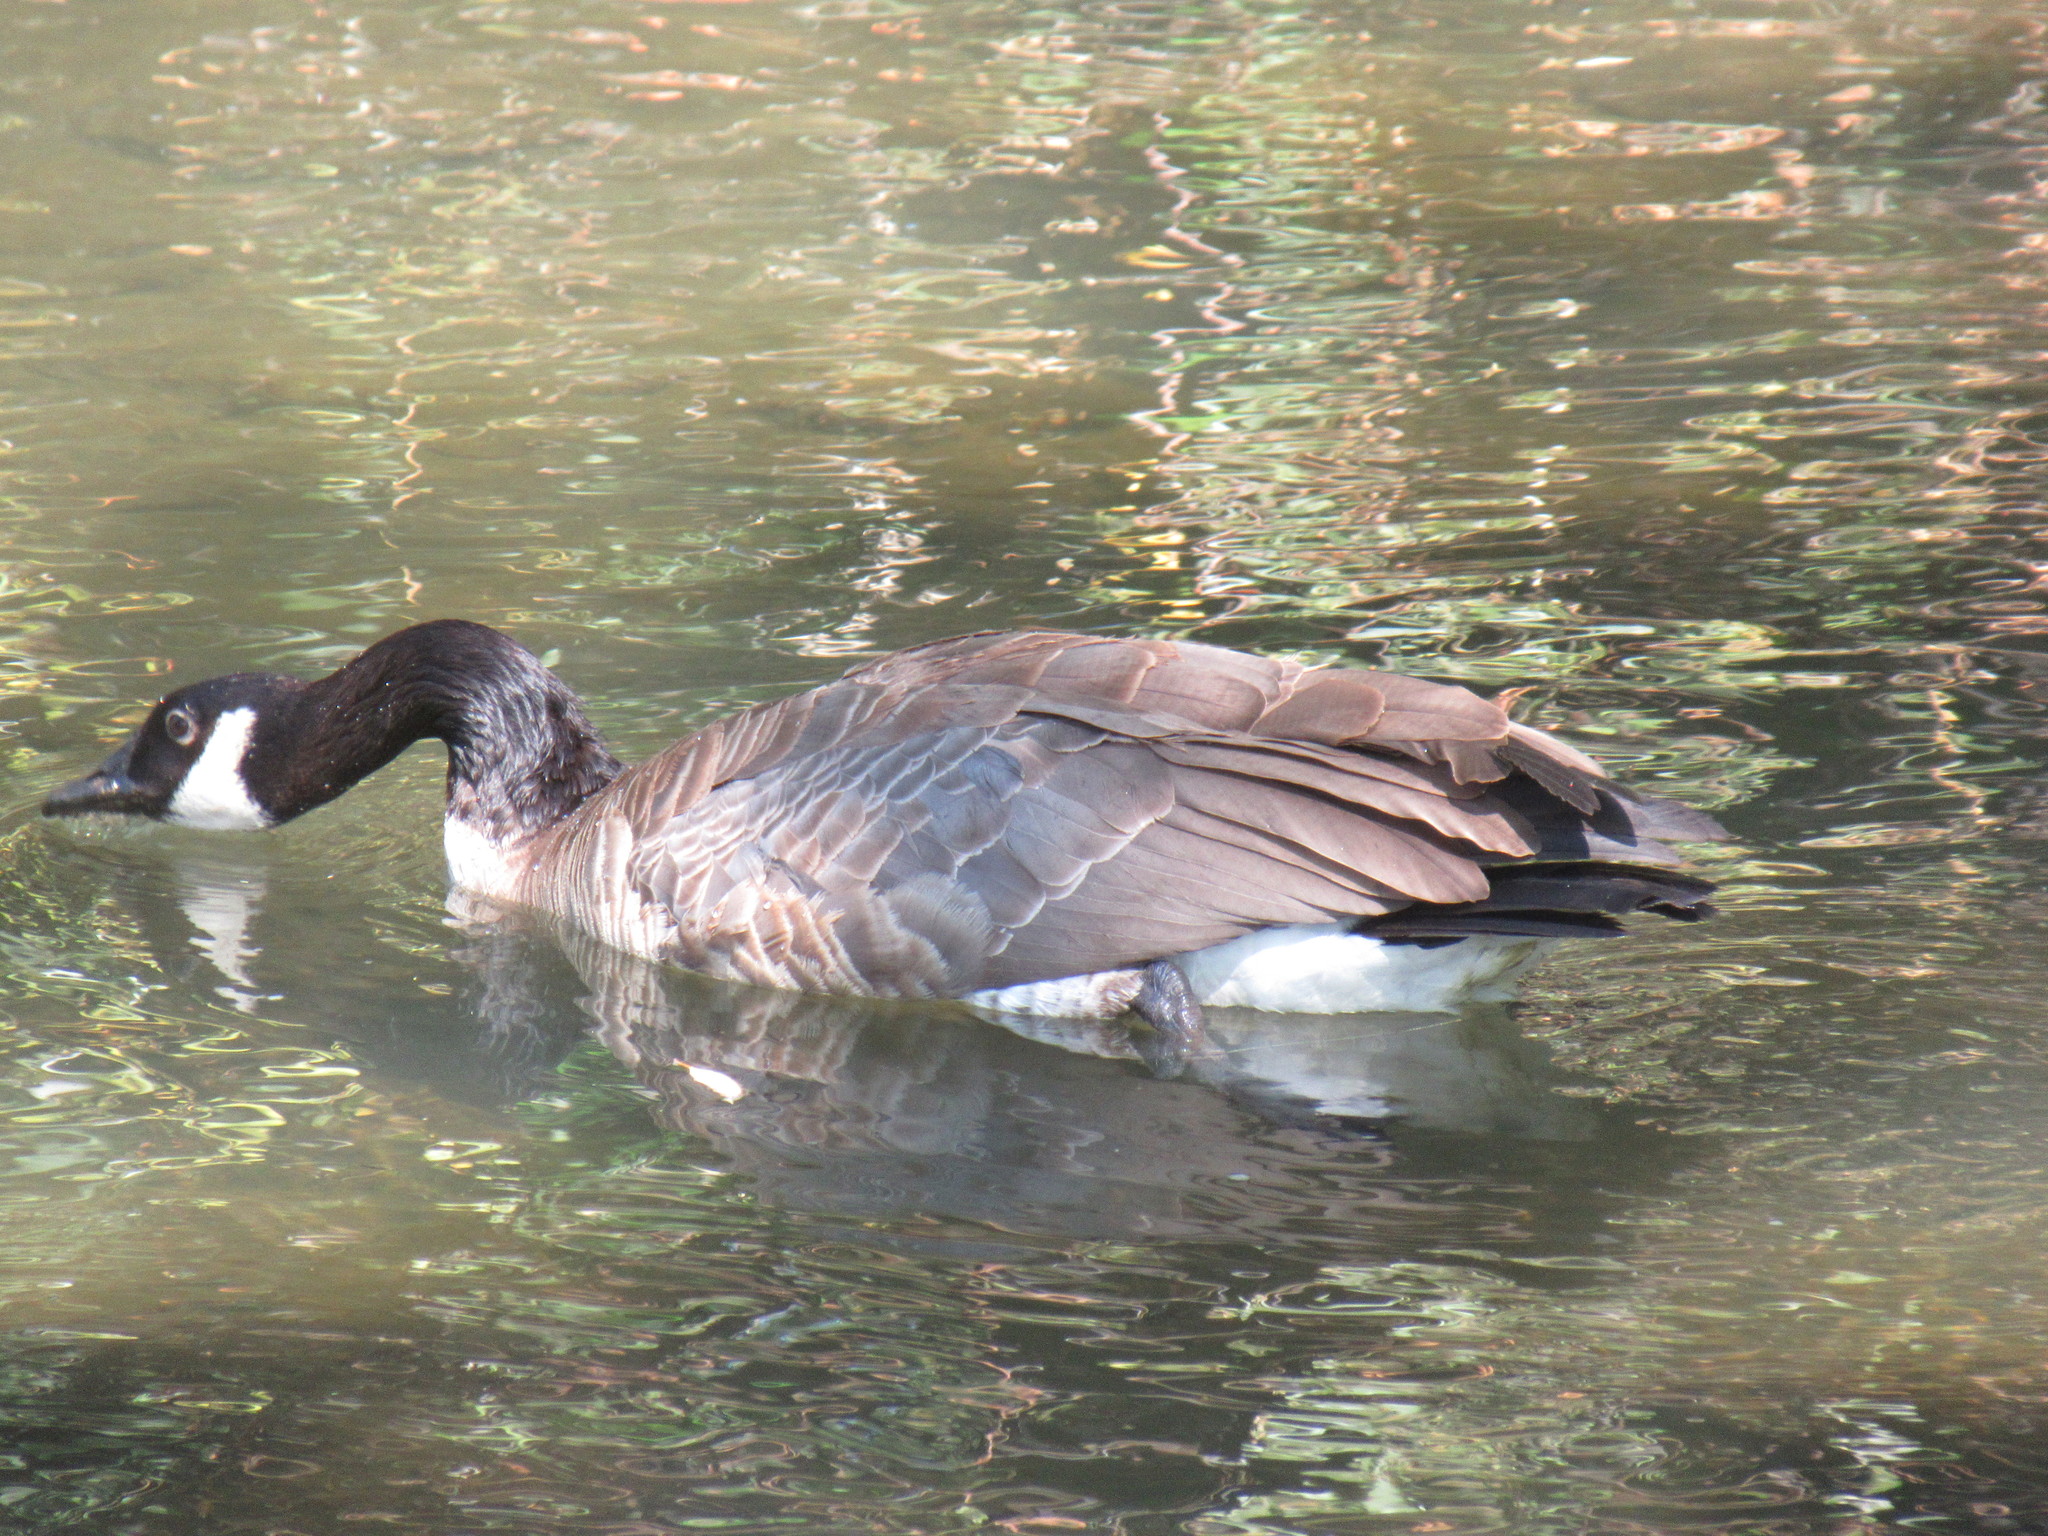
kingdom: Animalia
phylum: Chordata
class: Aves
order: Anseriformes
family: Anatidae
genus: Branta
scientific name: Branta canadensis
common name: Canada goose
